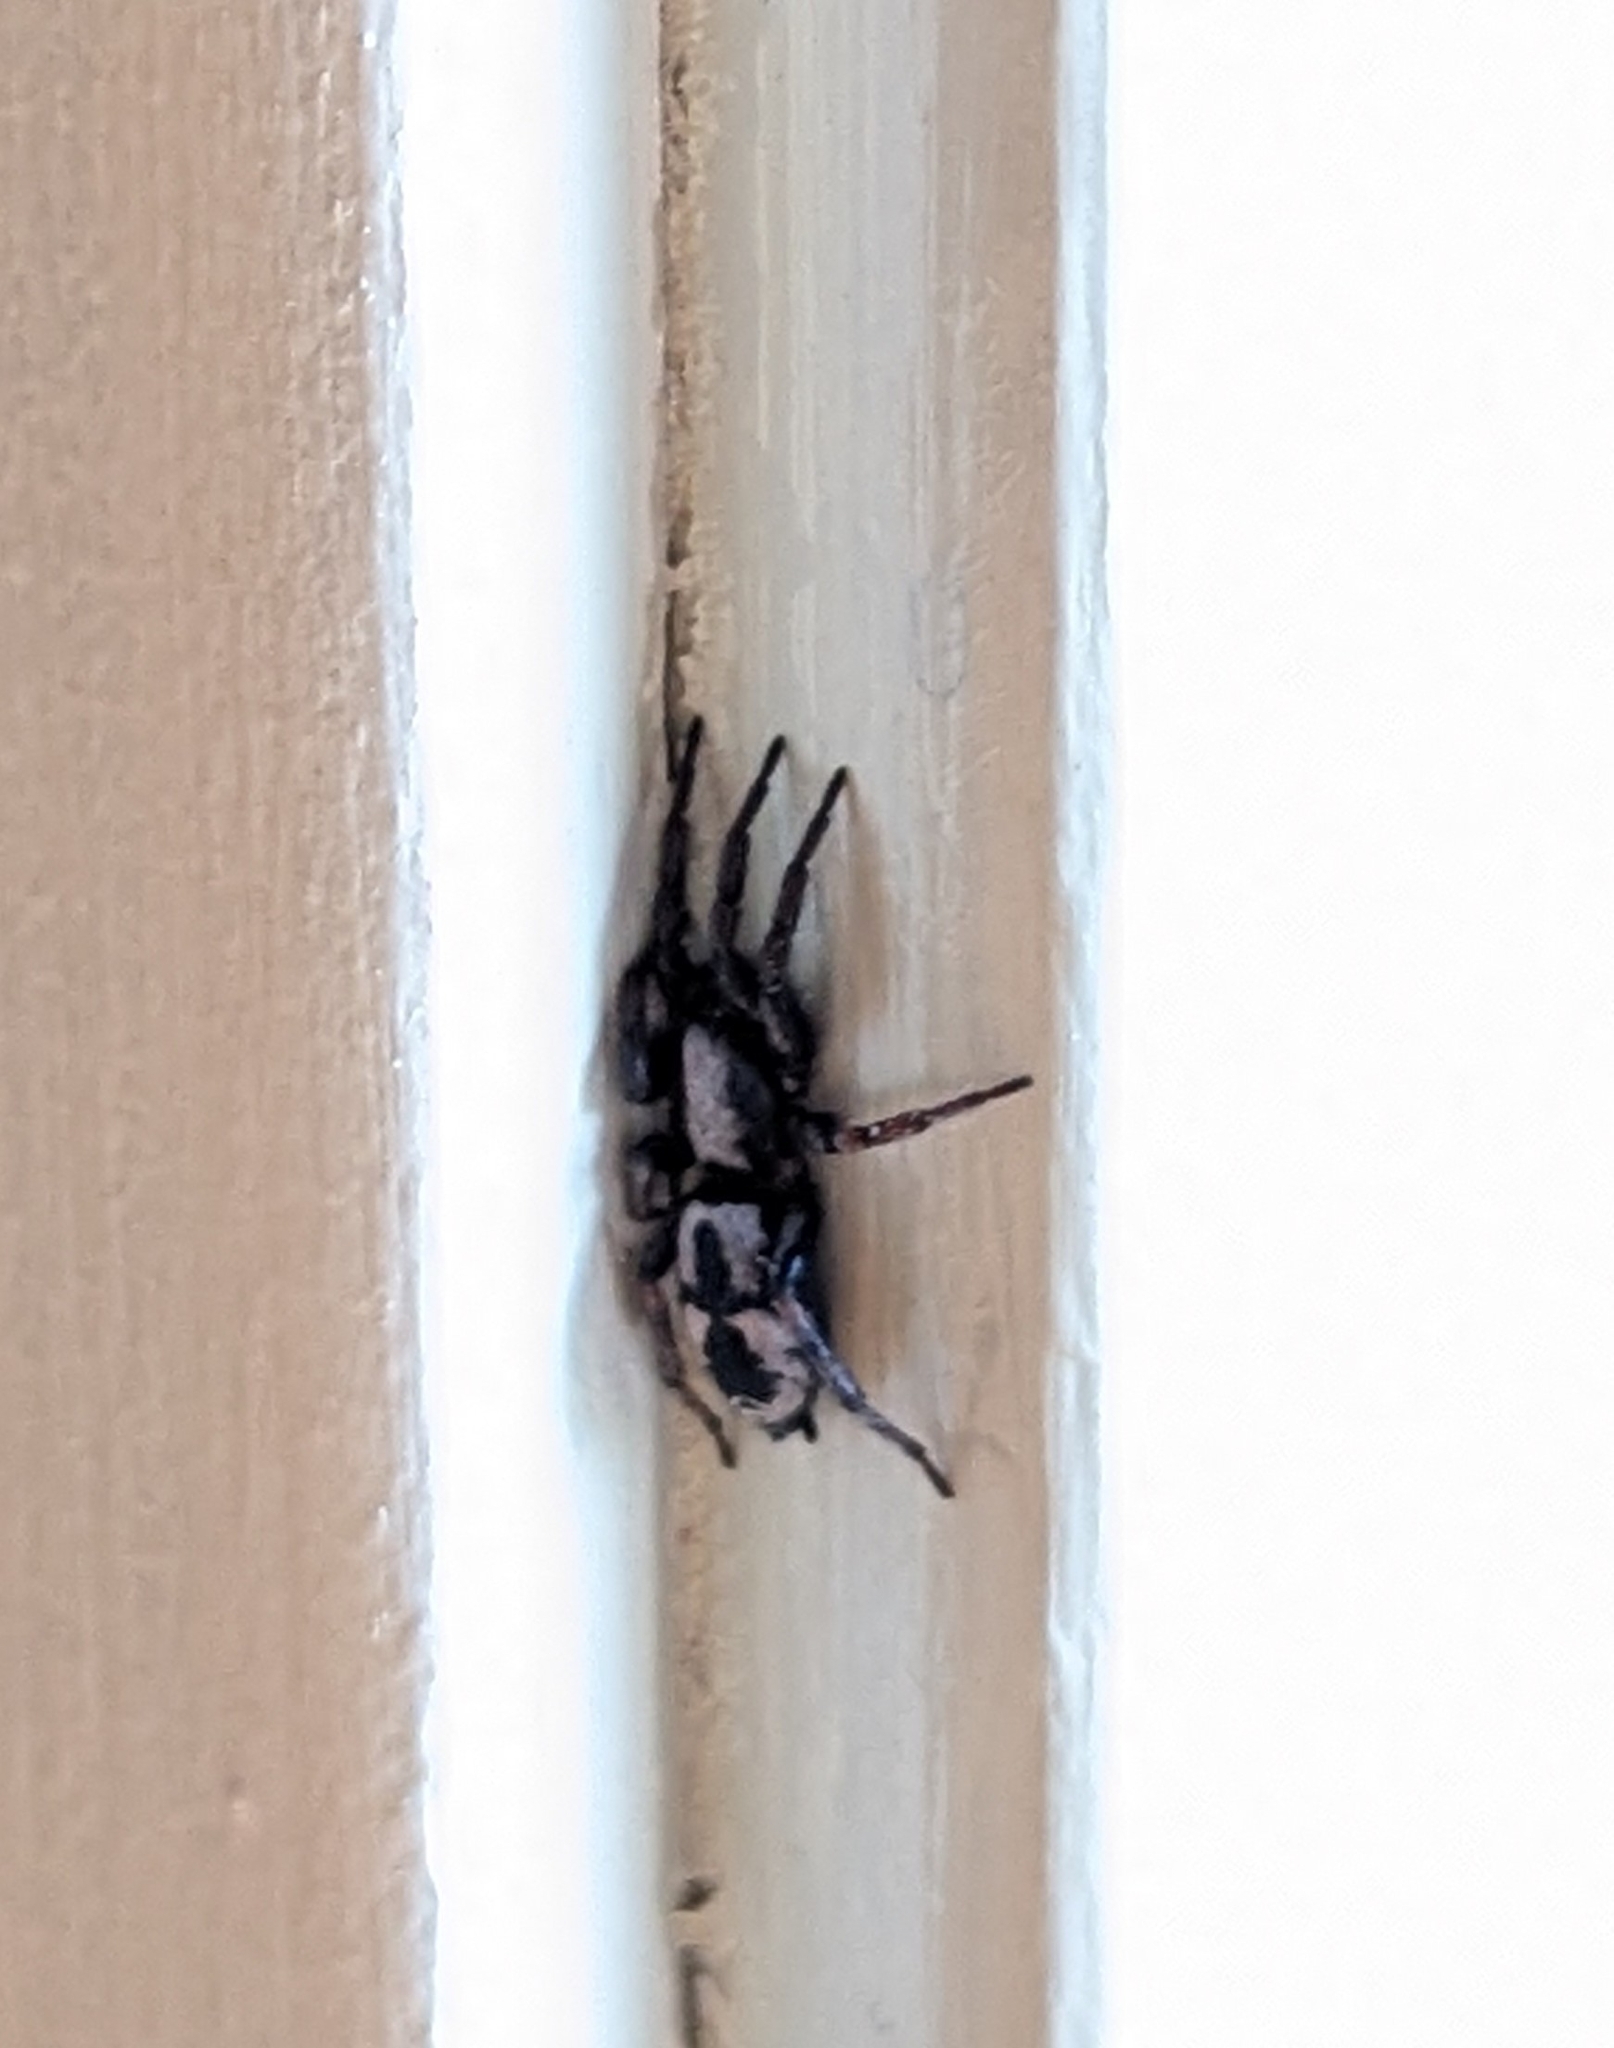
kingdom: Animalia
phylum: Arthropoda
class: Arachnida
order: Araneae
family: Gnaphosidae
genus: Sergiolus
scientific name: Sergiolus montanus
